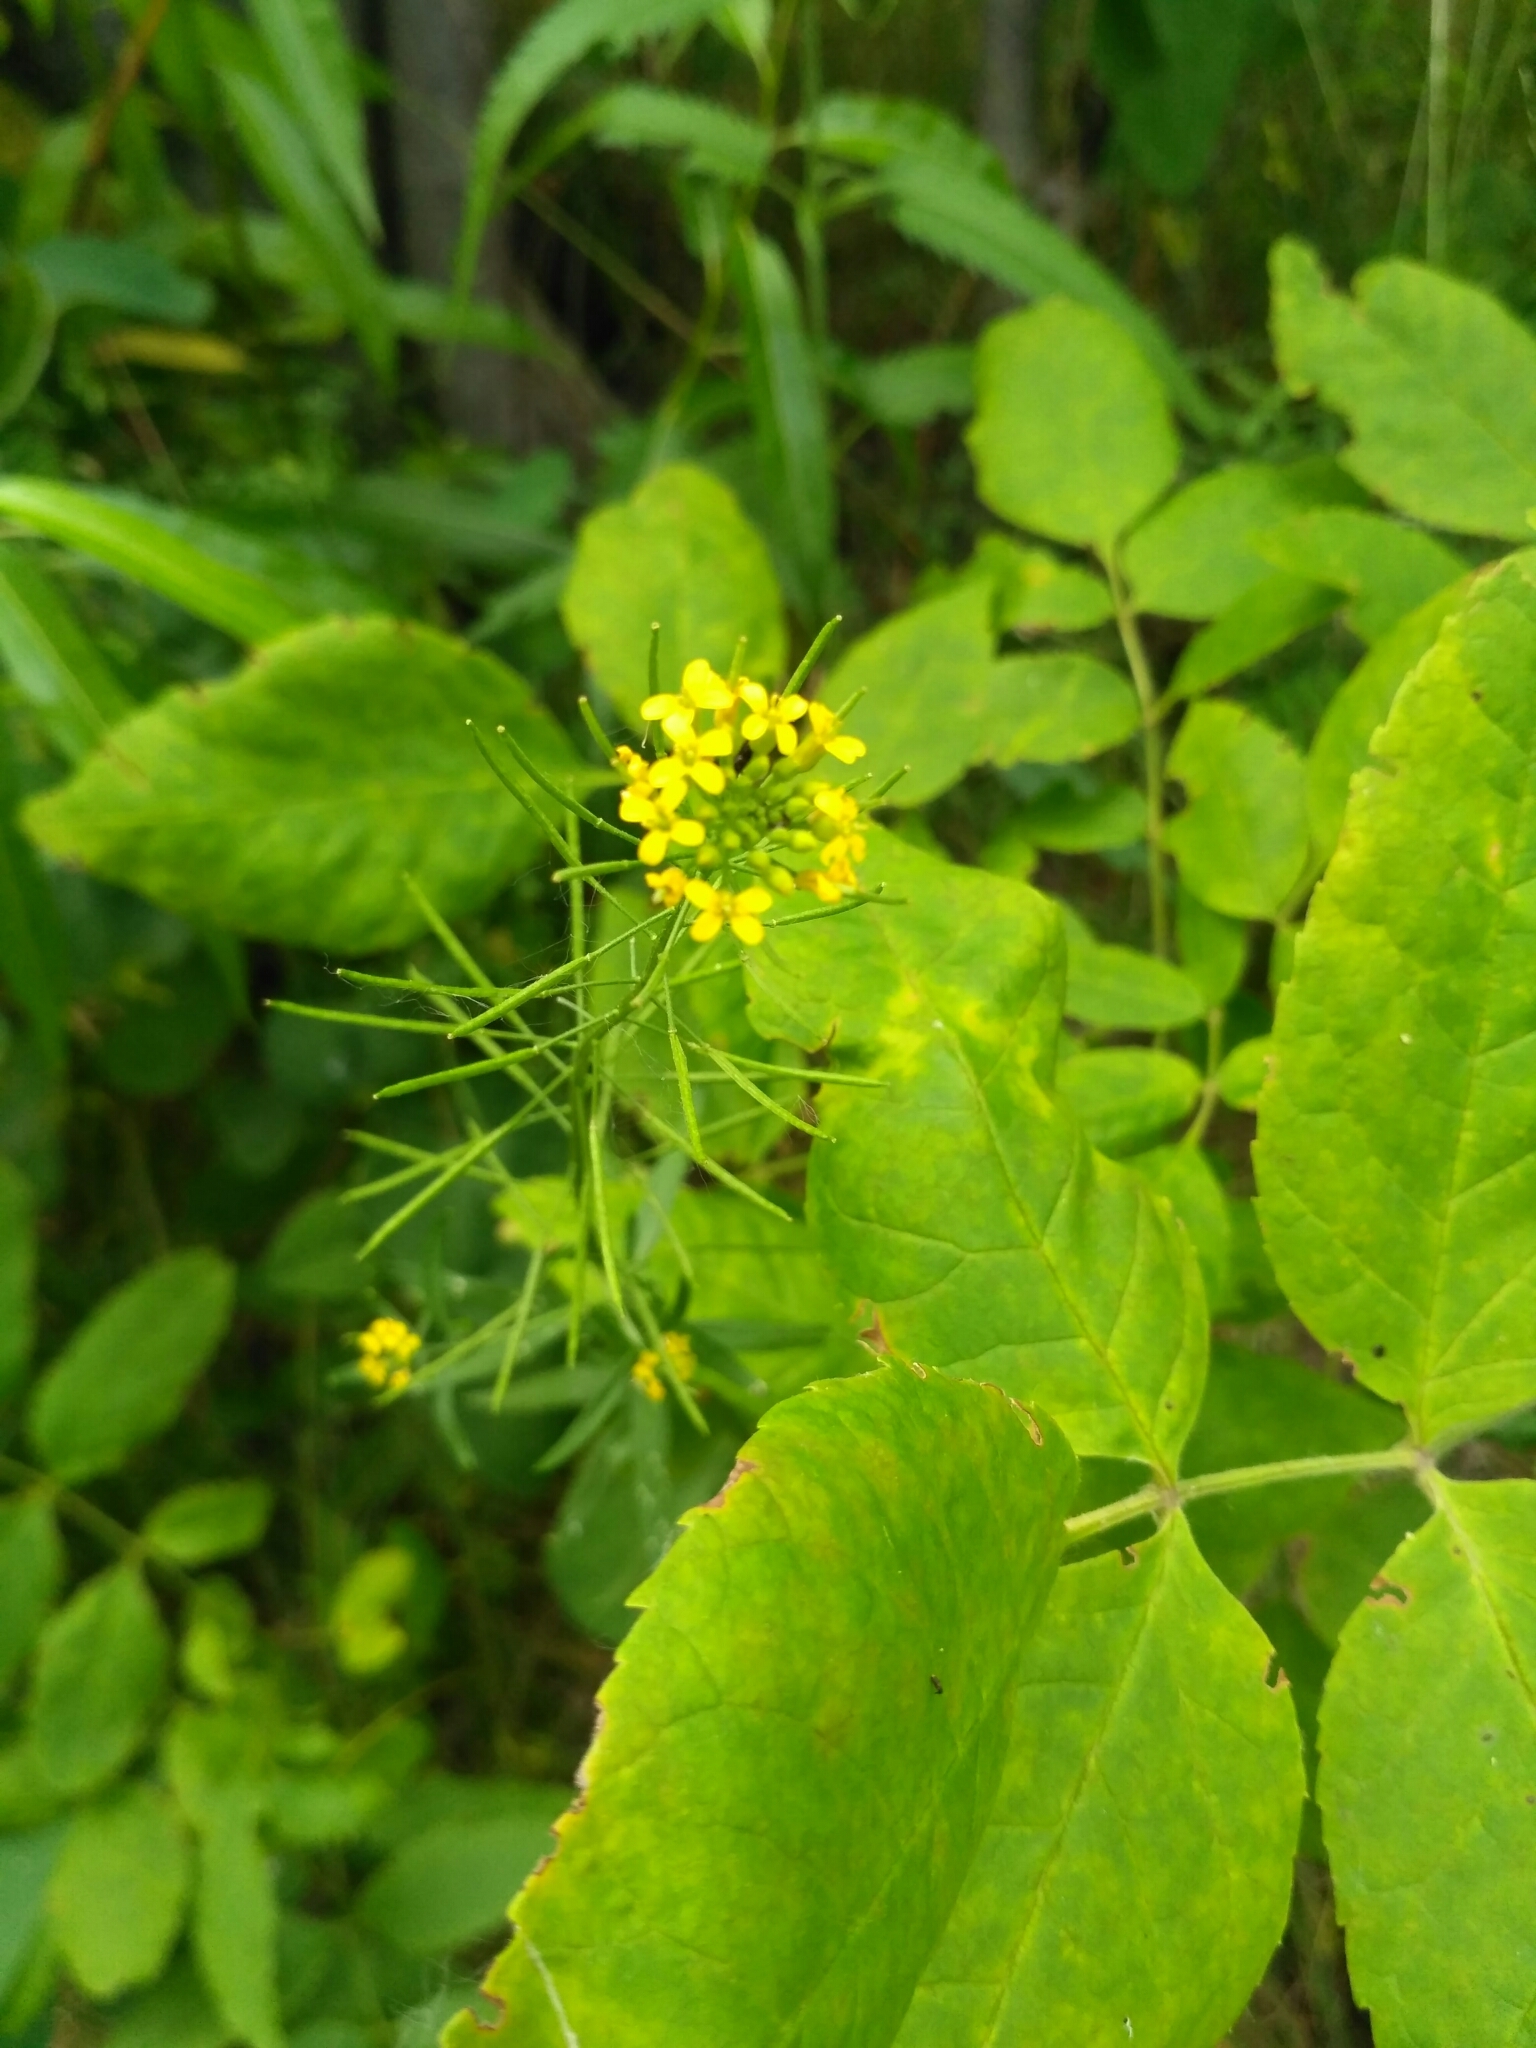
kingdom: Plantae
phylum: Tracheophyta
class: Magnoliopsida
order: Brassicales
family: Brassicaceae
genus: Erysimum
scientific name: Erysimum cheiranthoides
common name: Treacle mustard
